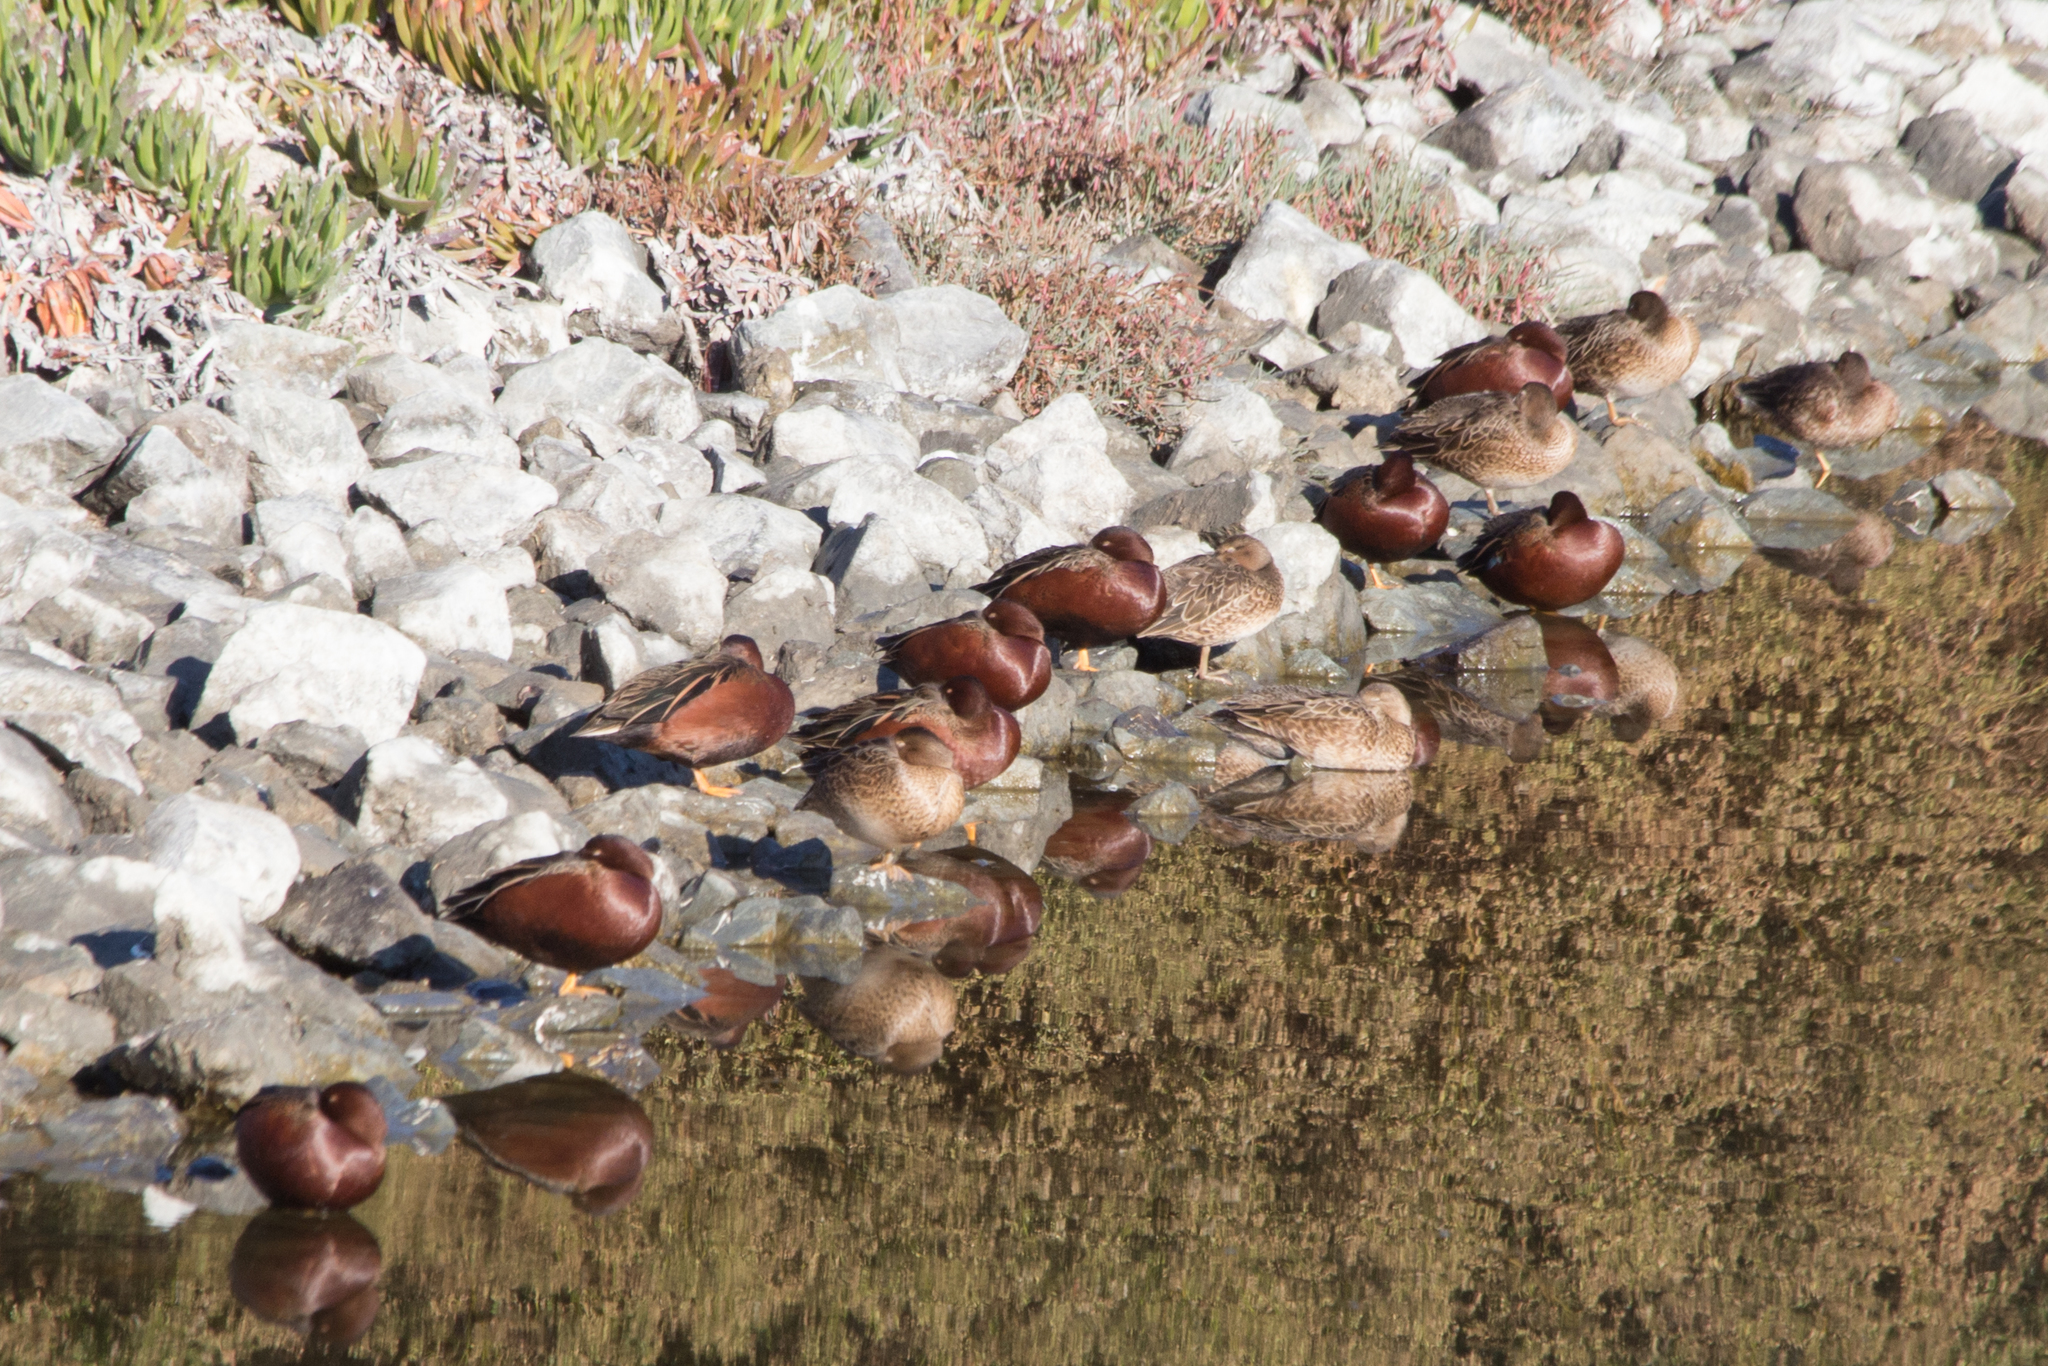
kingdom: Animalia
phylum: Chordata
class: Aves
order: Anseriformes
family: Anatidae
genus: Spatula
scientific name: Spatula cyanoptera
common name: Cinnamon teal
